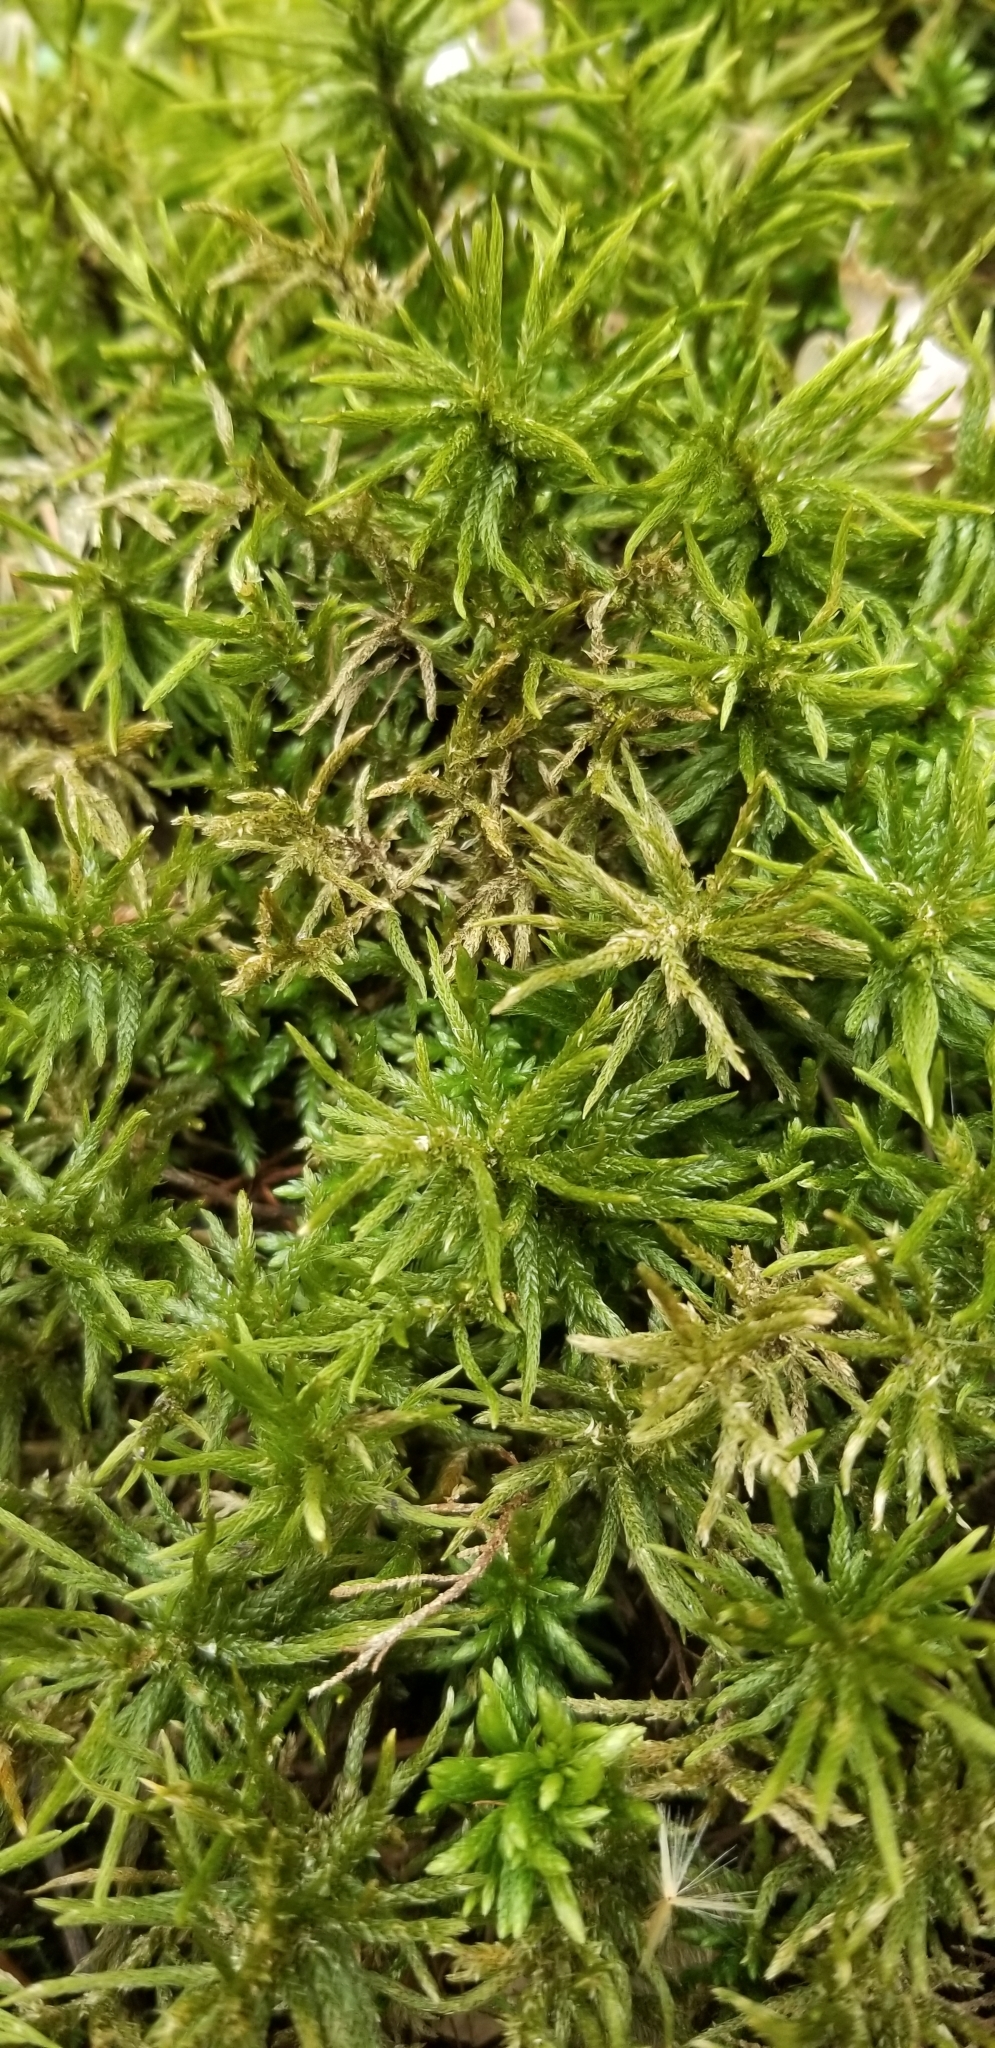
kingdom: Plantae
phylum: Bryophyta
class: Bryopsida
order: Hypnales
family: Climaciaceae
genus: Climacium
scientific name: Climacium americanum
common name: American tree moss
